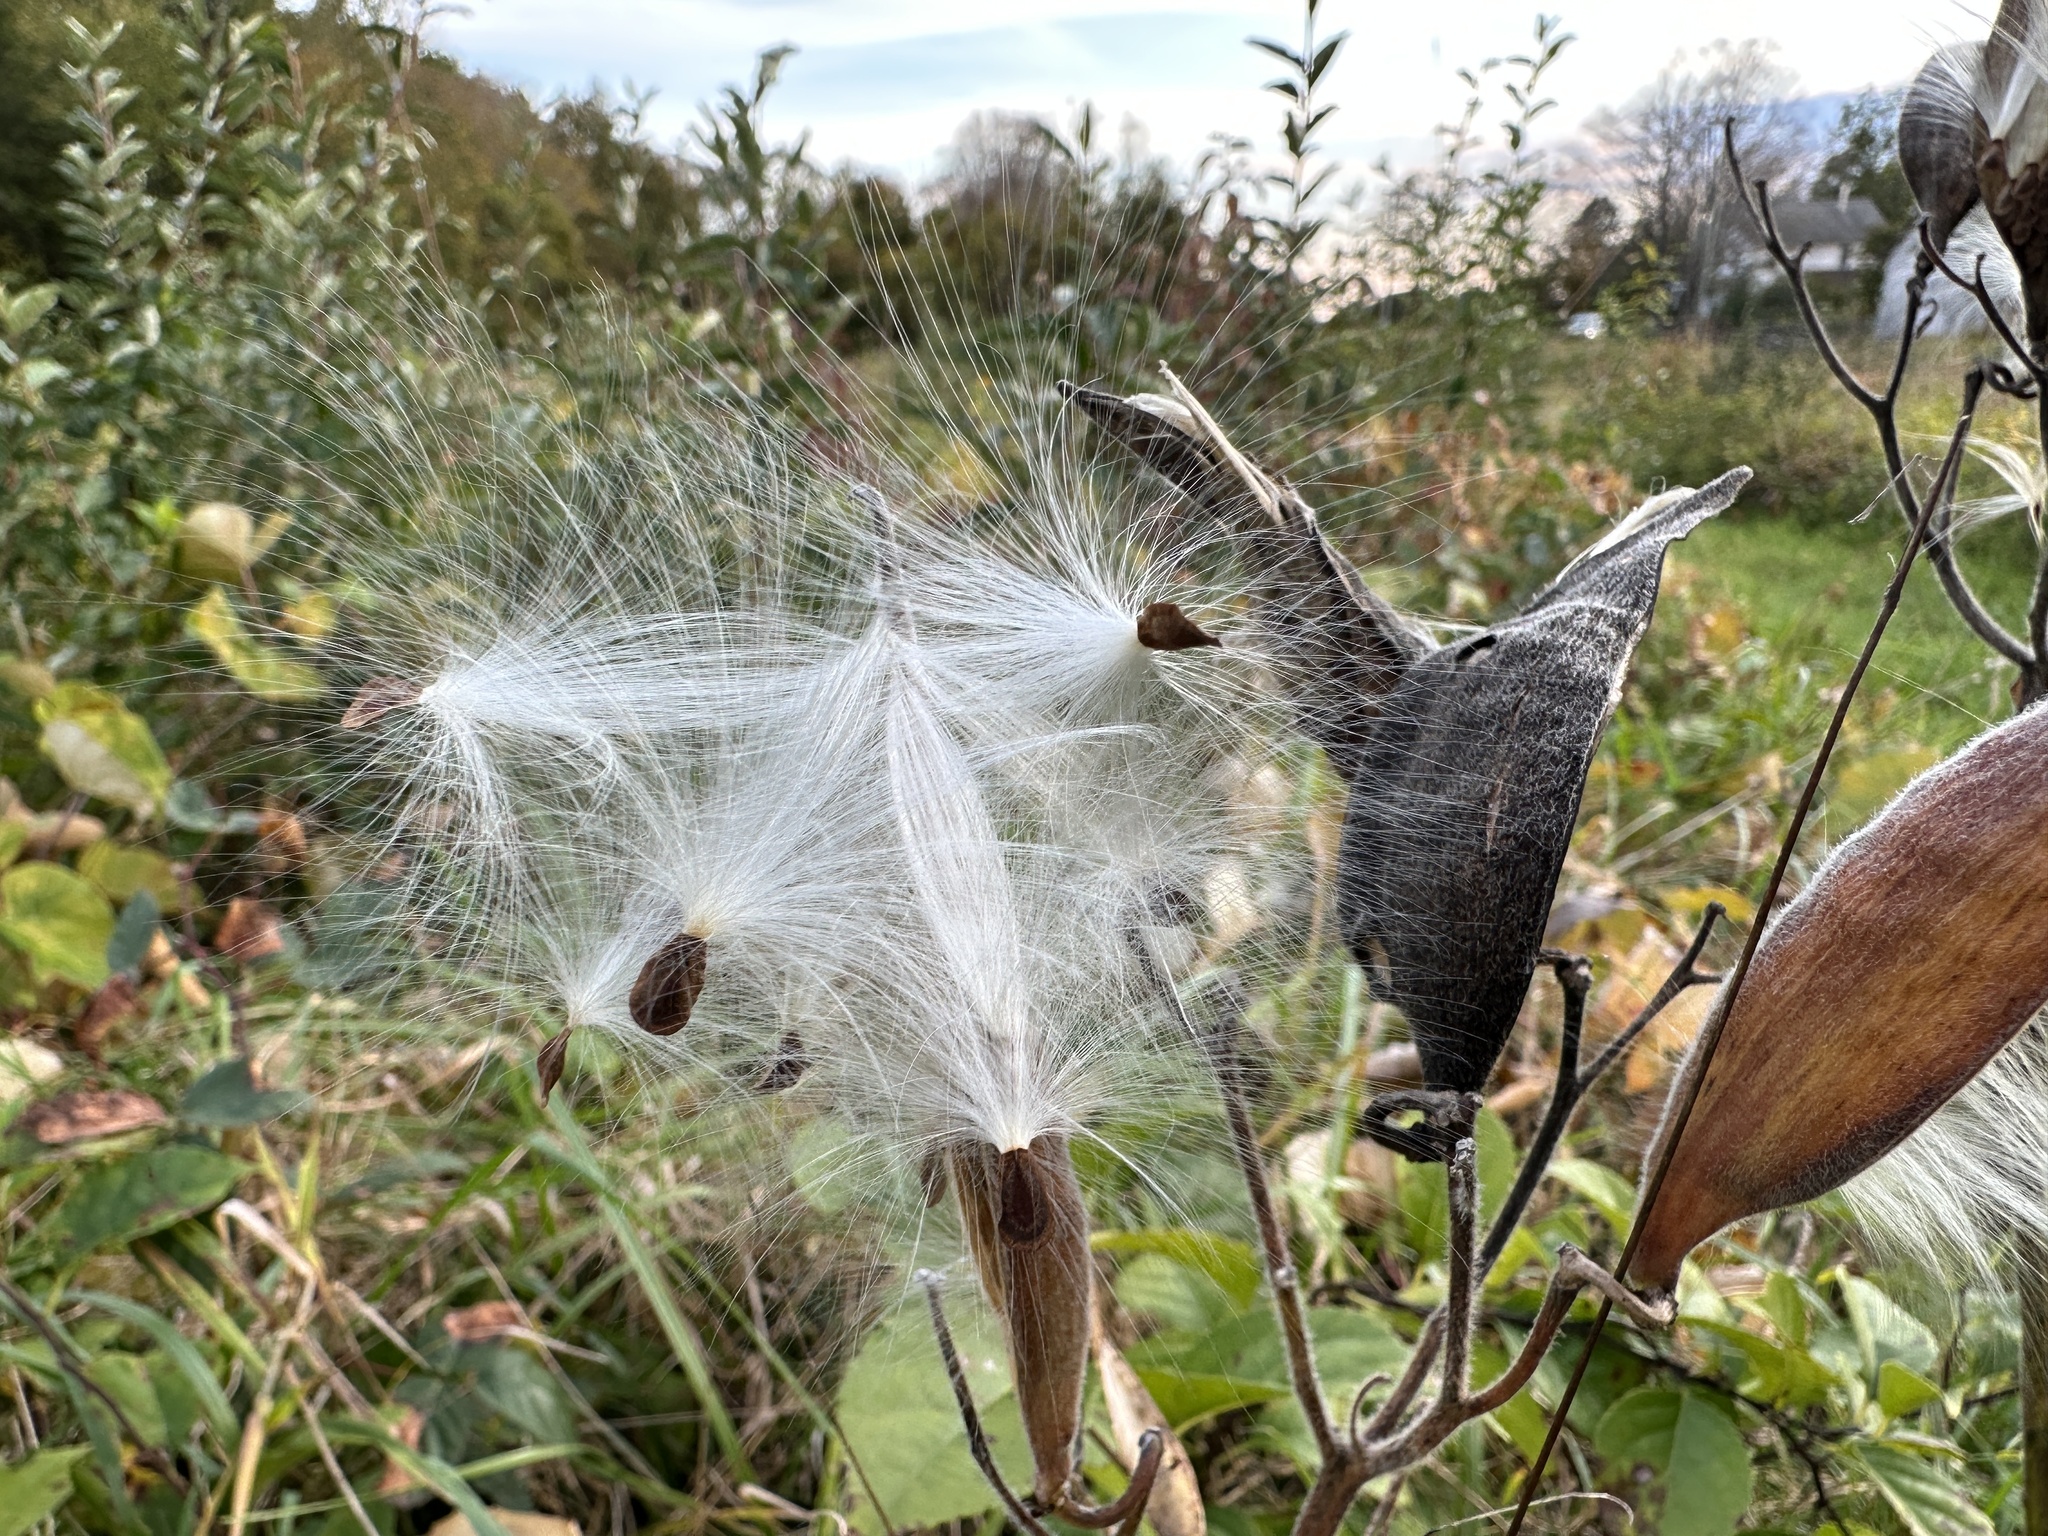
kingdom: Plantae
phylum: Tracheophyta
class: Magnoliopsida
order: Gentianales
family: Apocynaceae
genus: Asclepias
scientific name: Asclepias tuberosa
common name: Butterfly milkweed
